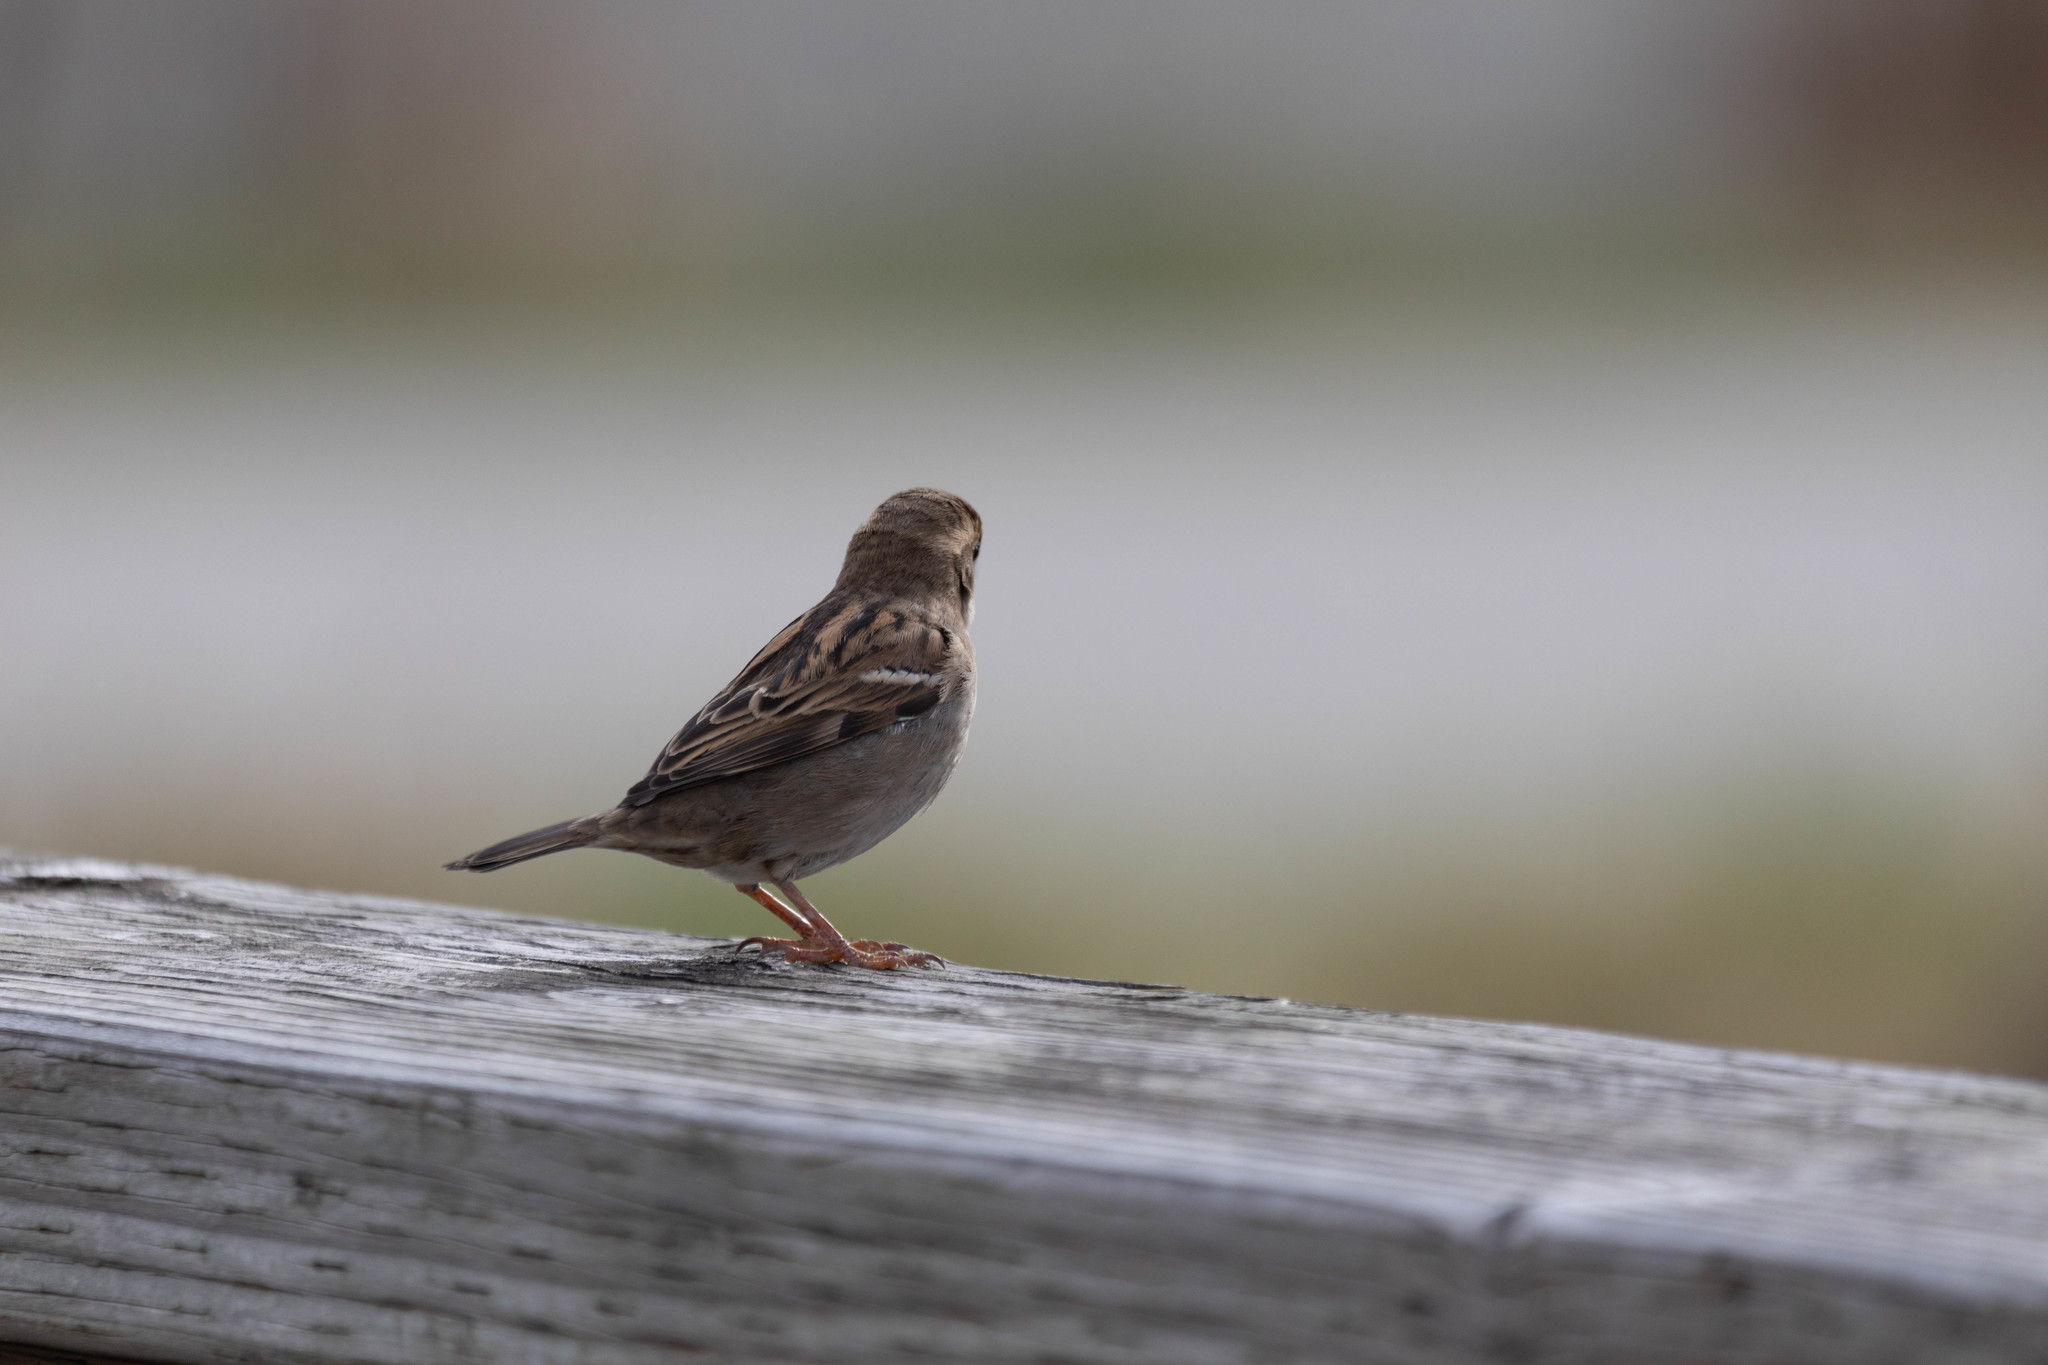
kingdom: Animalia
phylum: Chordata
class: Aves
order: Passeriformes
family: Passeridae
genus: Passer
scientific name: Passer domesticus
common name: House sparrow
